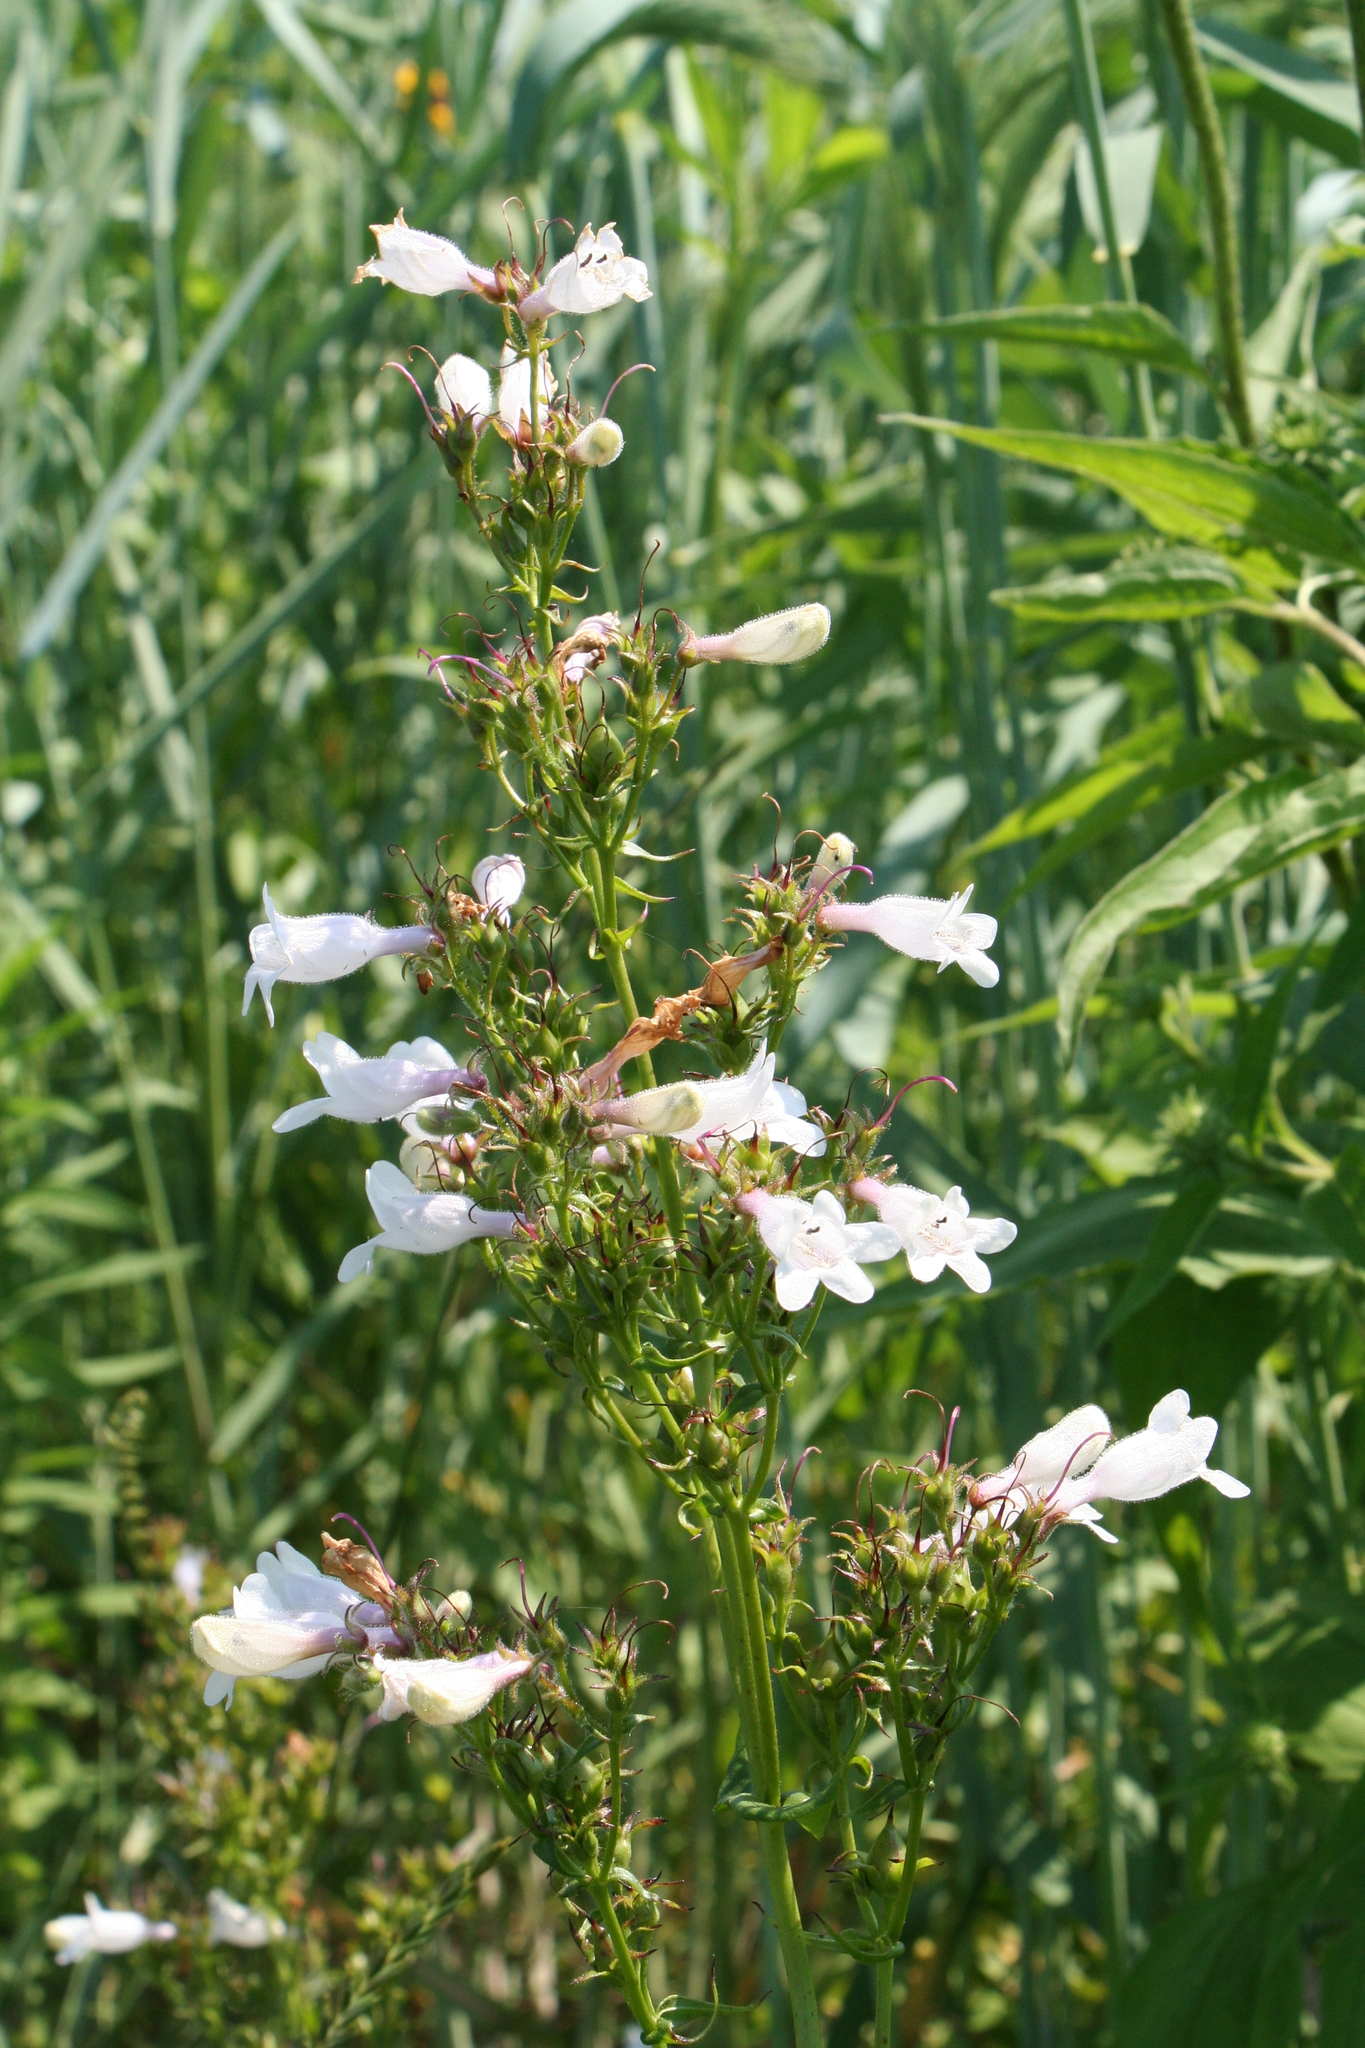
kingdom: Plantae
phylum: Tracheophyta
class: Magnoliopsida
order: Lamiales
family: Plantaginaceae
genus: Penstemon
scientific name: Penstemon digitalis
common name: Foxglove beardtongue
